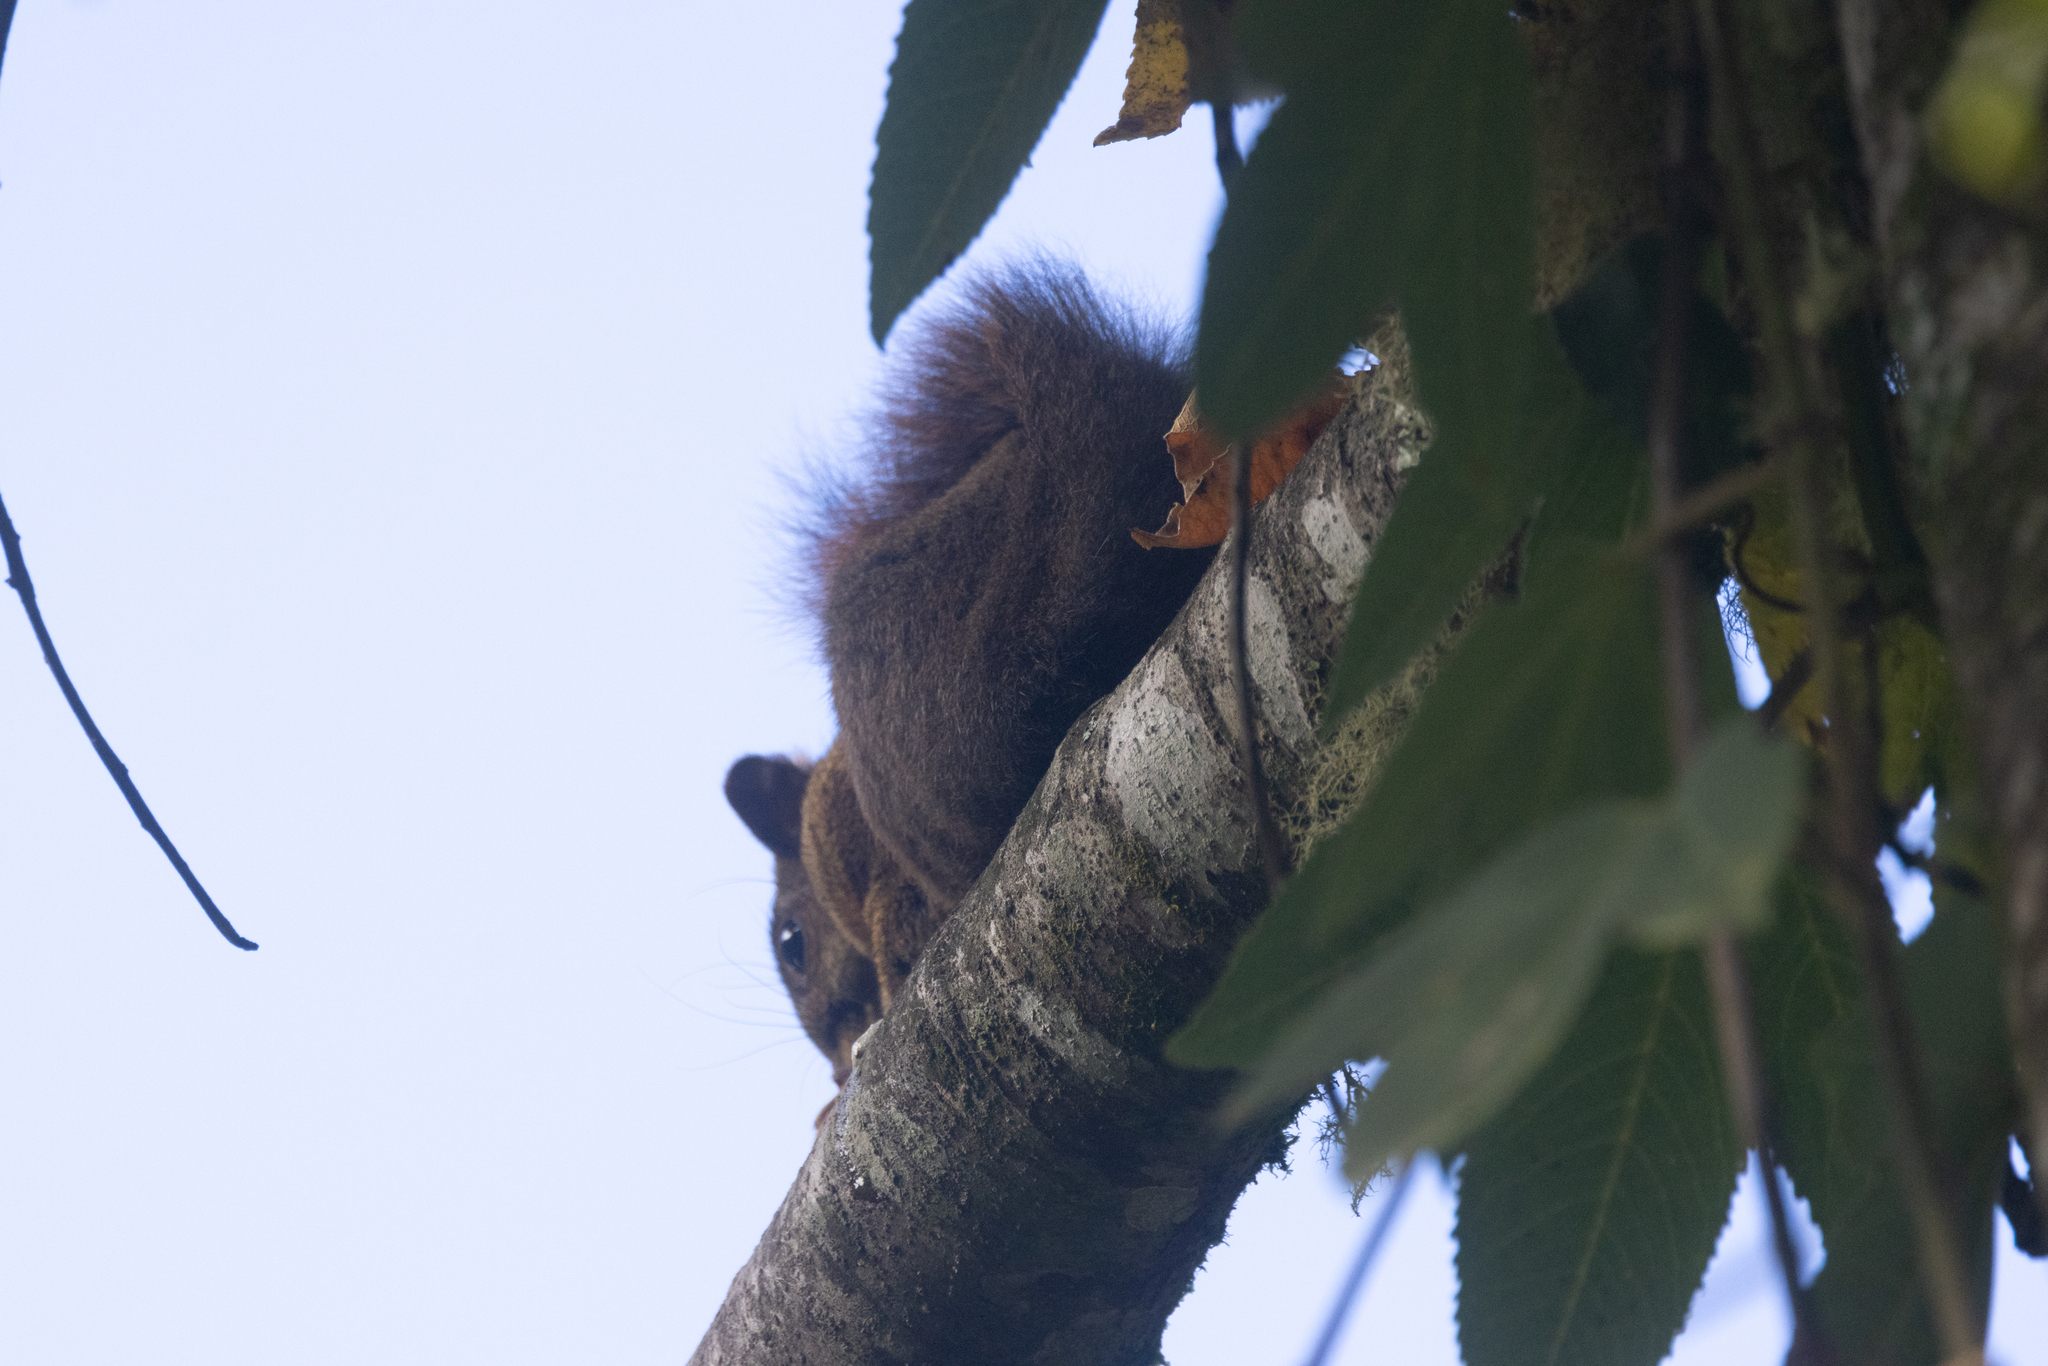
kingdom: Animalia
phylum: Chordata
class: Mammalia
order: Rodentia
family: Sciuridae
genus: Sciurus
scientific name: Sciurus granatensis
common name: Red-tailed squirrel
